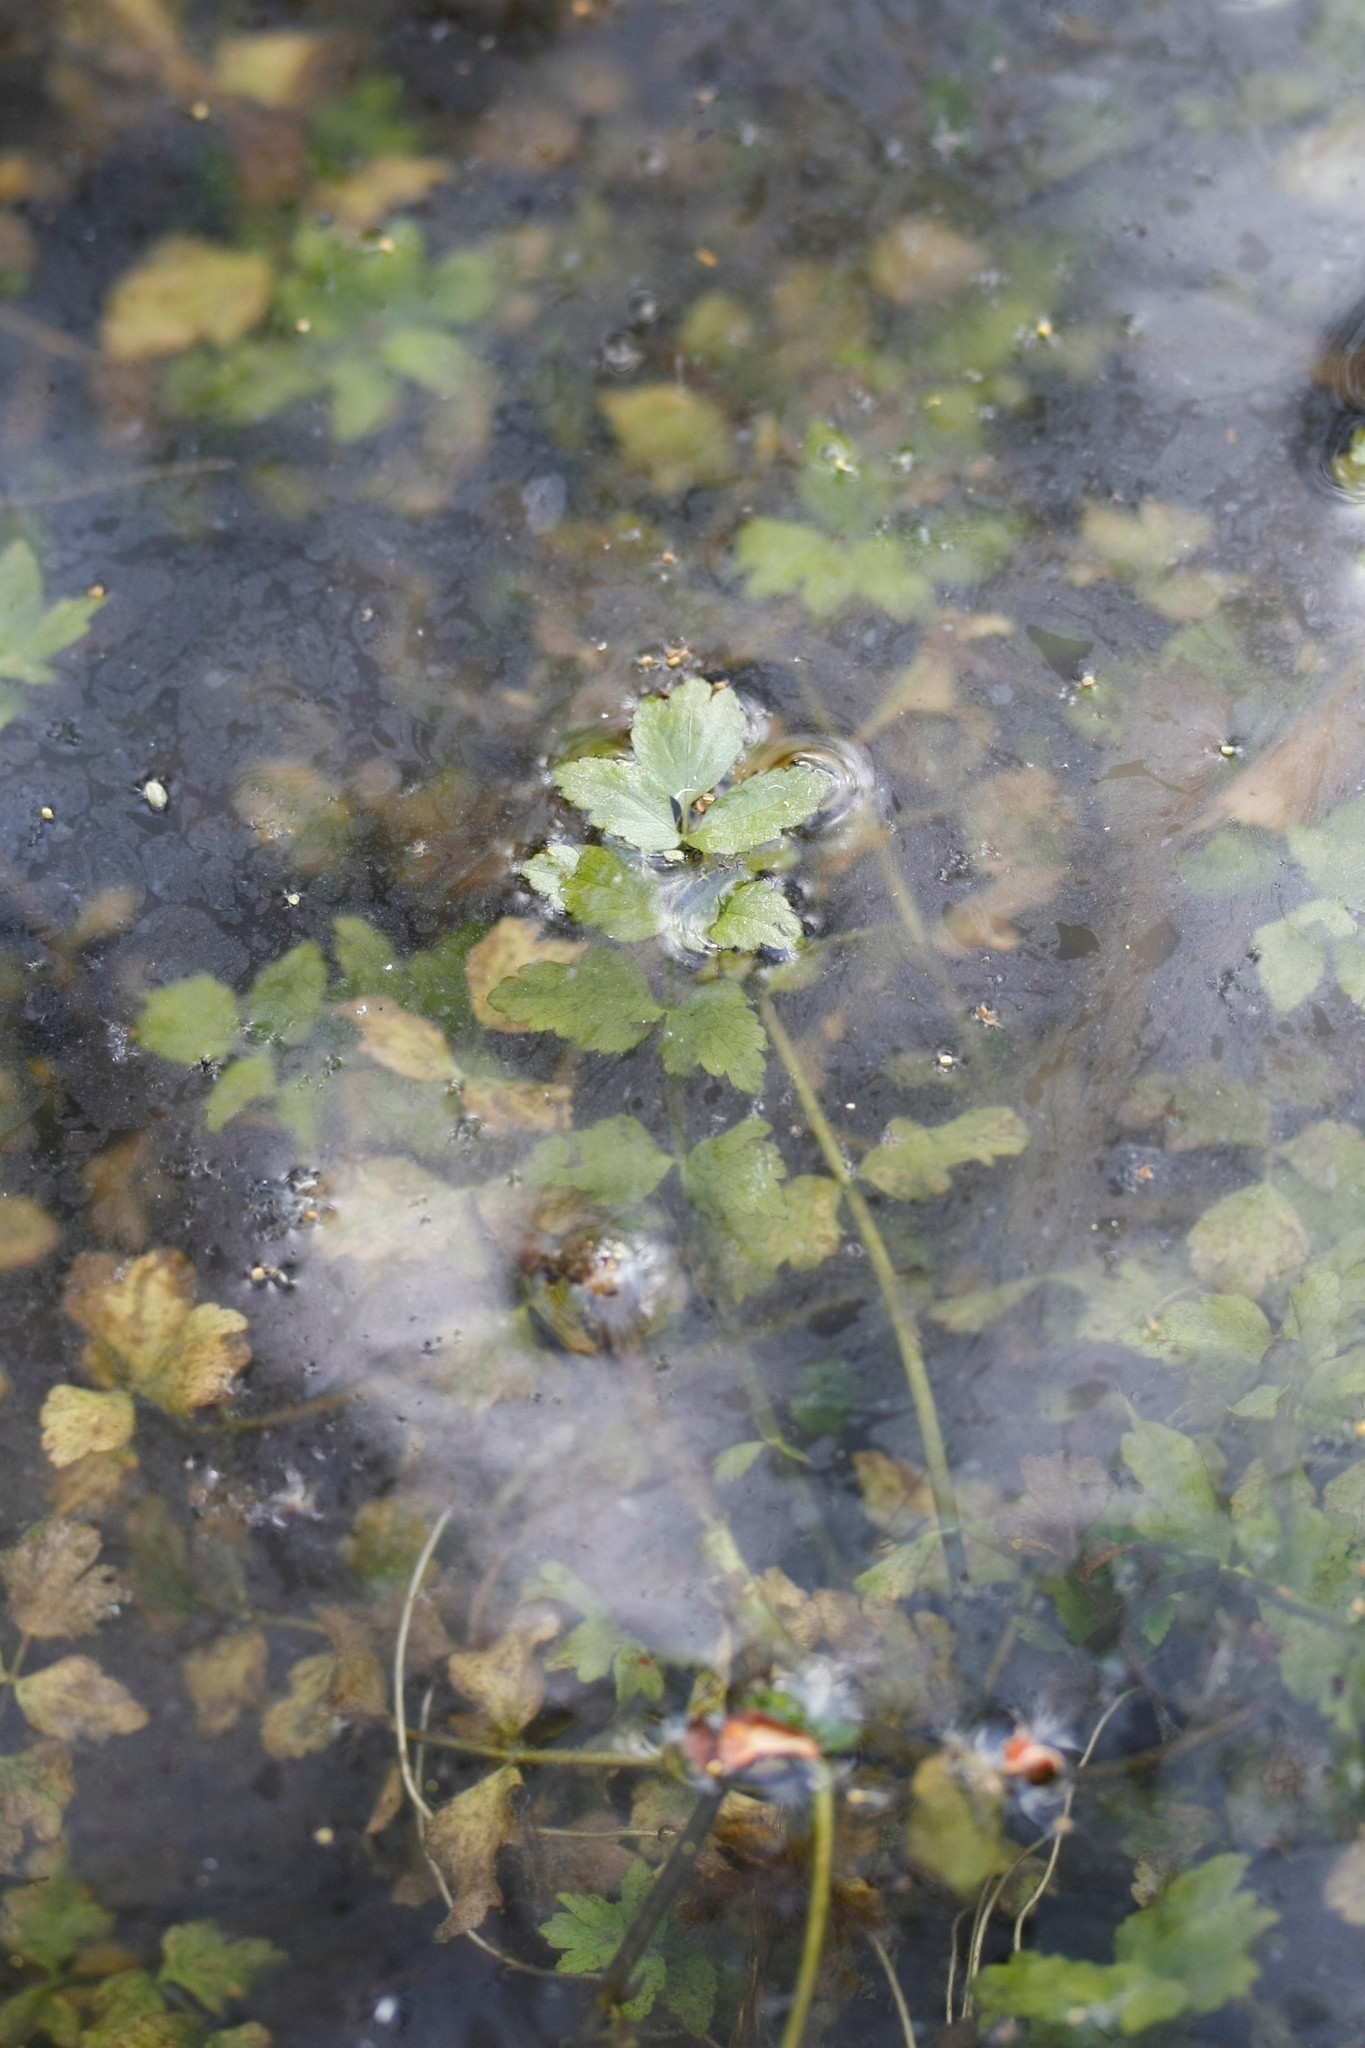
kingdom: Plantae
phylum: Tracheophyta
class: Magnoliopsida
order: Apiales
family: Apiaceae
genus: Berula
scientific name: Berula erecta
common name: Lesser water-parsnip
